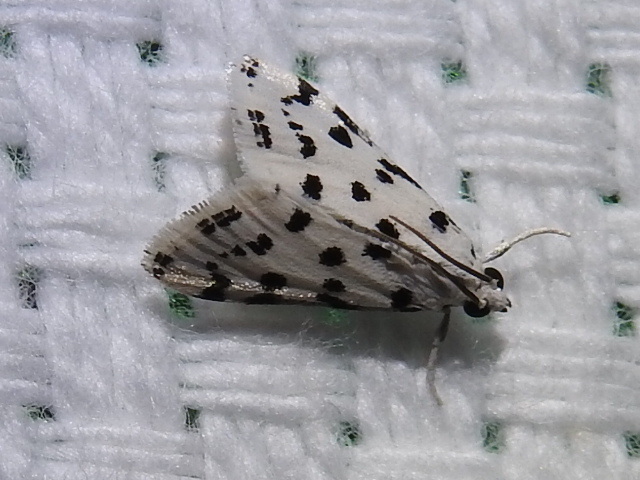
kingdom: Animalia
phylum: Arthropoda
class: Insecta
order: Lepidoptera
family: Crambidae
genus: Eustixia
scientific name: Eustixia pupula
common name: American cabbage pearl
